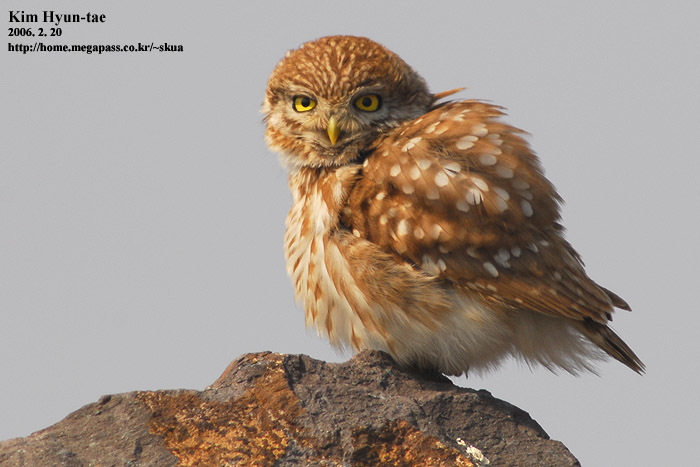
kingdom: Animalia
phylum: Chordata
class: Aves
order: Strigiformes
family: Strigidae
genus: Athene
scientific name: Athene noctua
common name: Little owl
